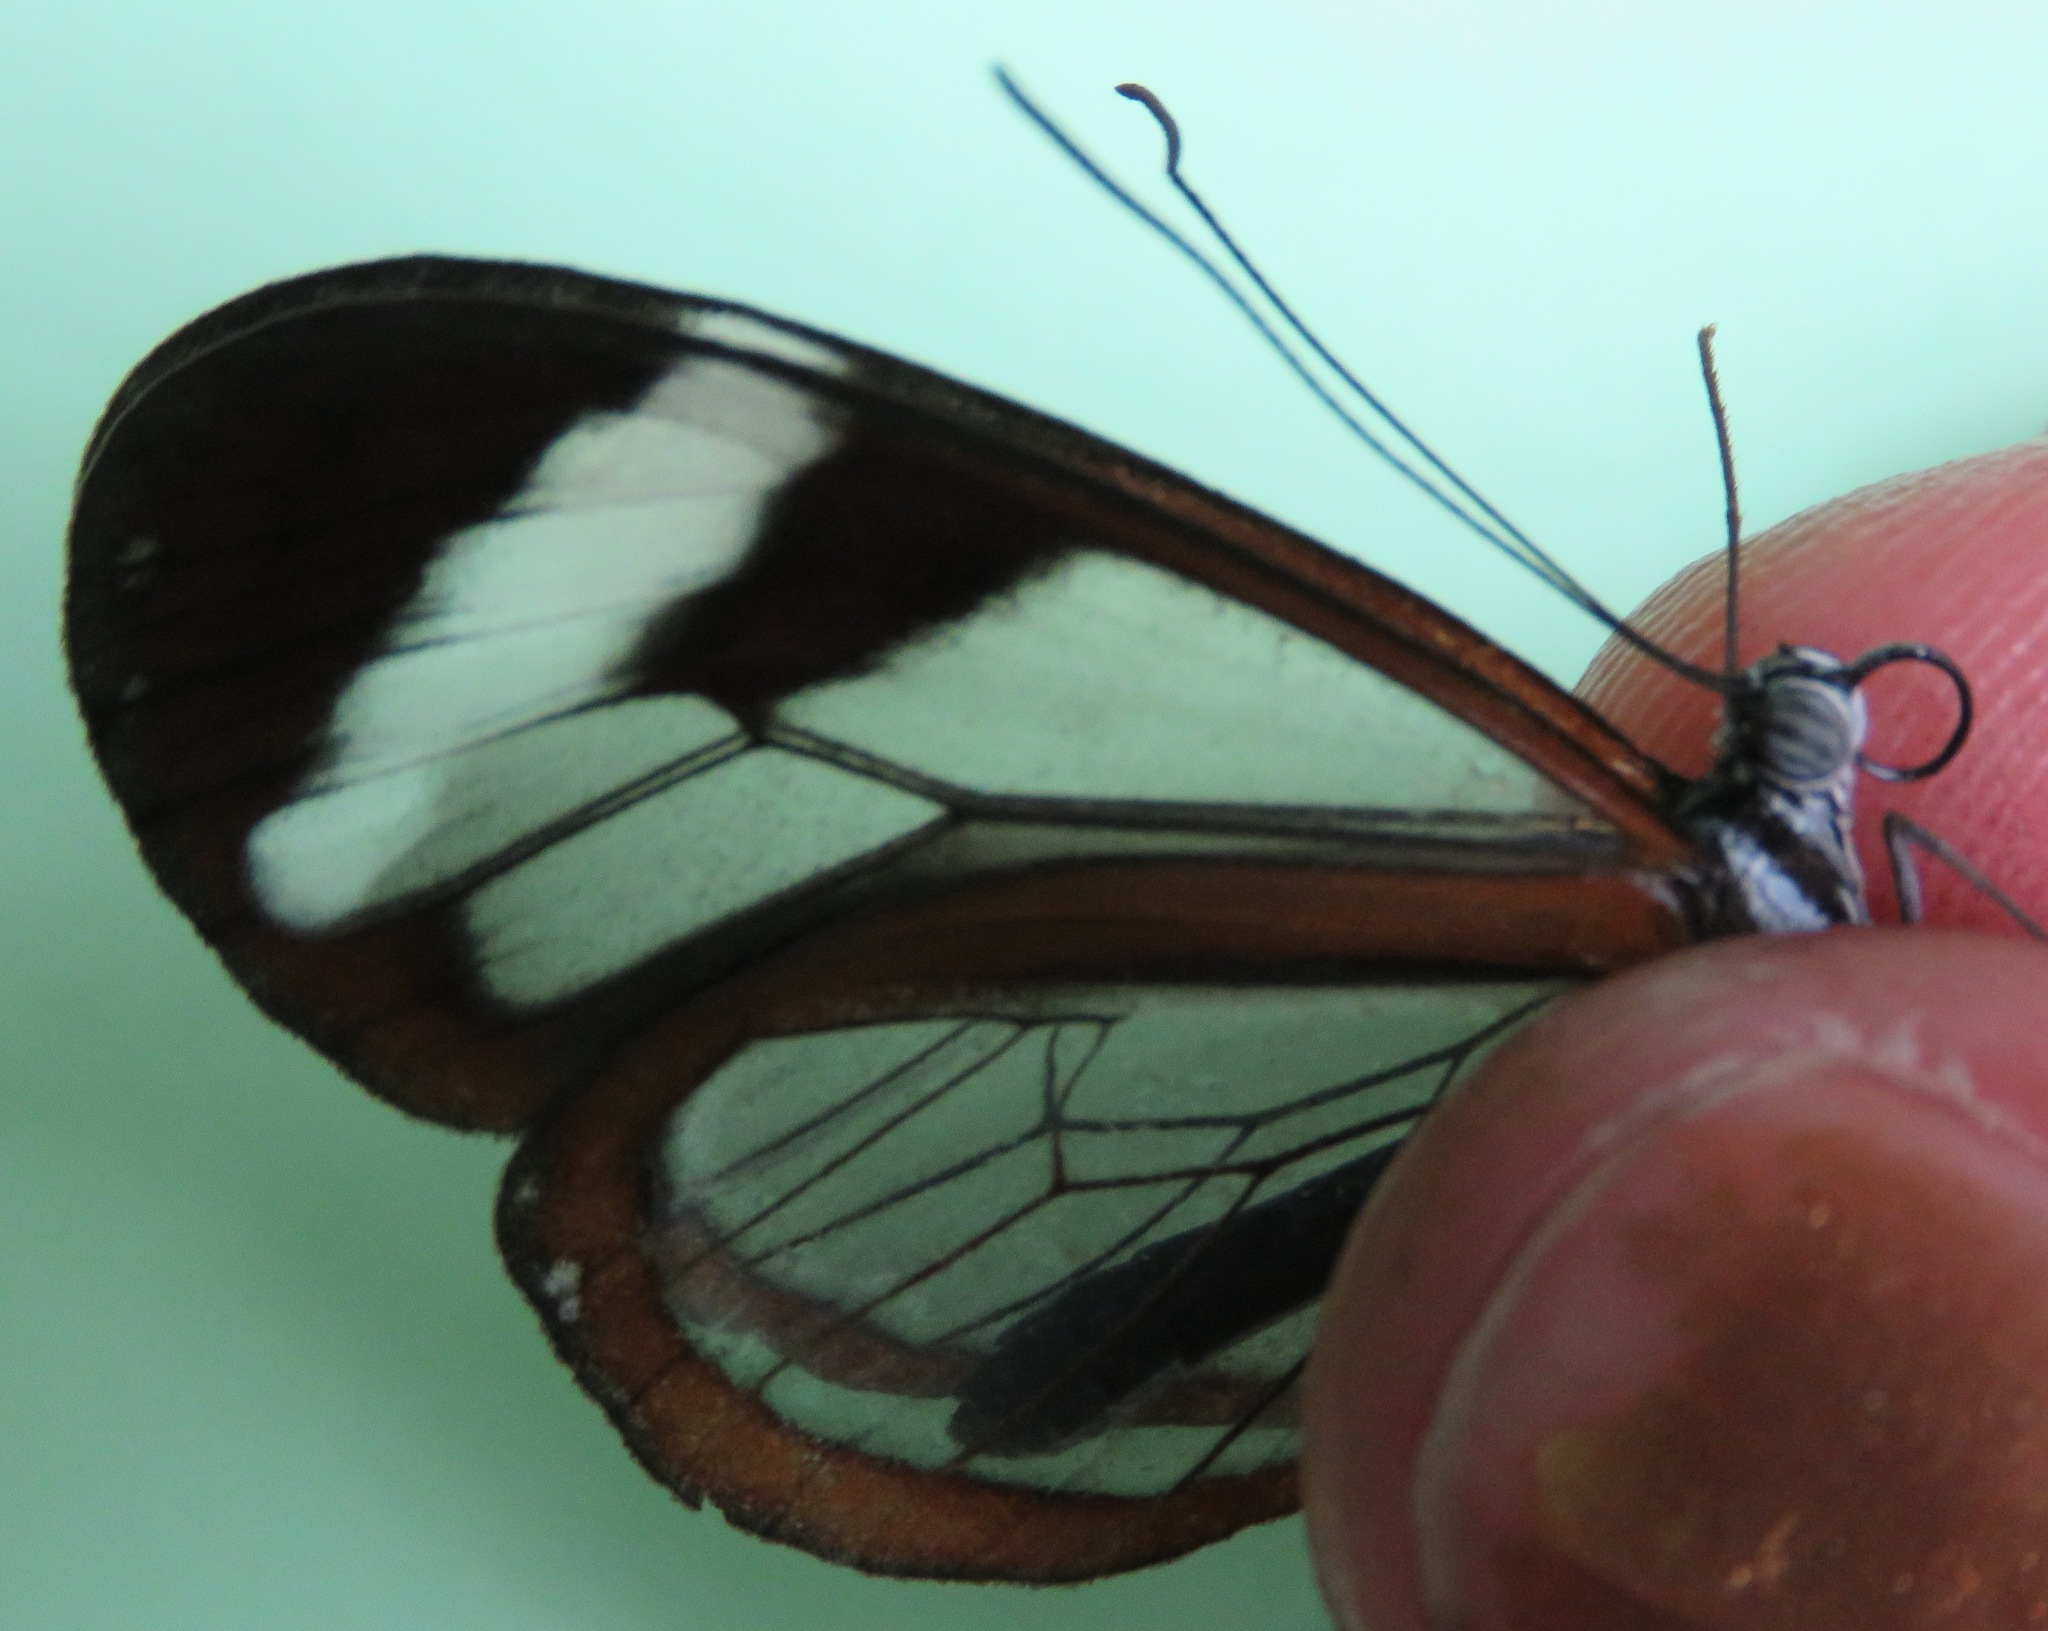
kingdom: Animalia
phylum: Arthropoda
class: Insecta
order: Lepidoptera
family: Nymphalidae
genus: Oleria
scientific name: Oleria paula
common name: Paula's clearwing
